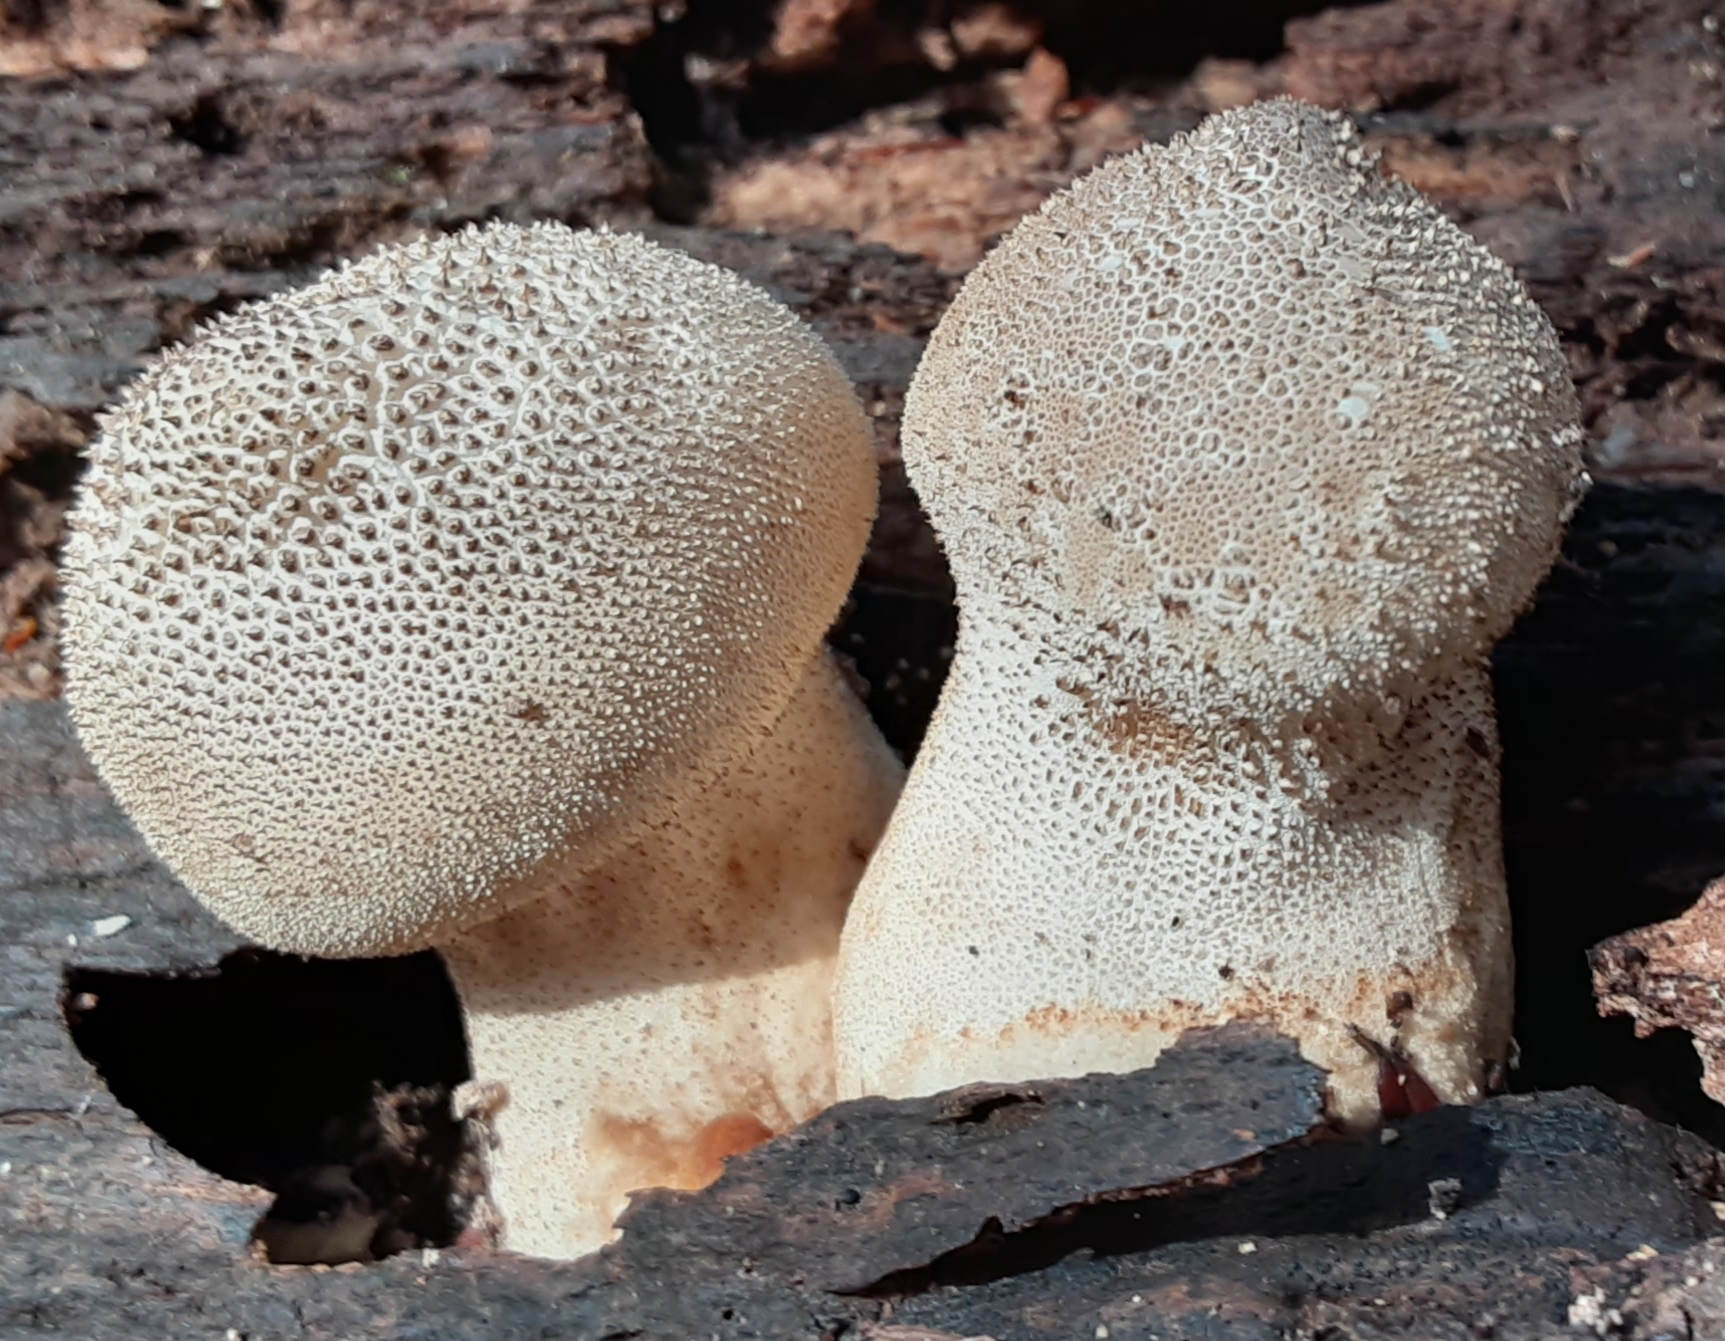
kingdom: Fungi
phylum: Basidiomycota
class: Agaricomycetes
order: Agaricales
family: Lycoperdaceae
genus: Lycoperdon
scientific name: Lycoperdon perlatum
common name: Common puffball
